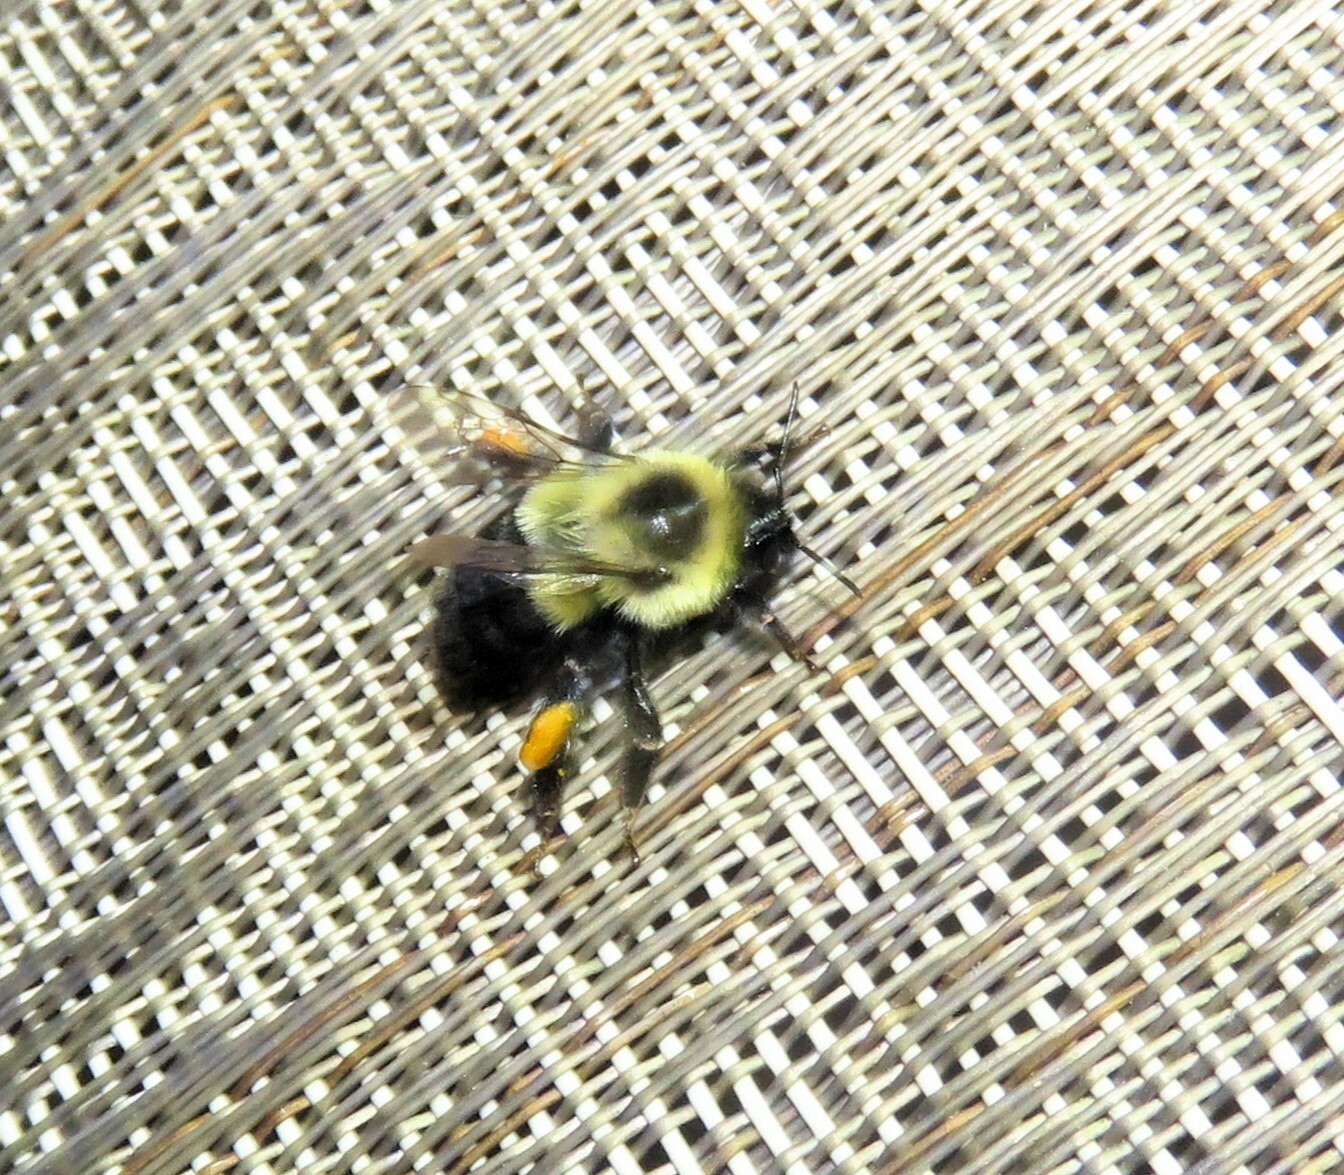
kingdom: Animalia
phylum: Arthropoda
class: Insecta
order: Hymenoptera
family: Apidae
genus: Bombus
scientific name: Bombus impatiens
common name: Common eastern bumble bee
